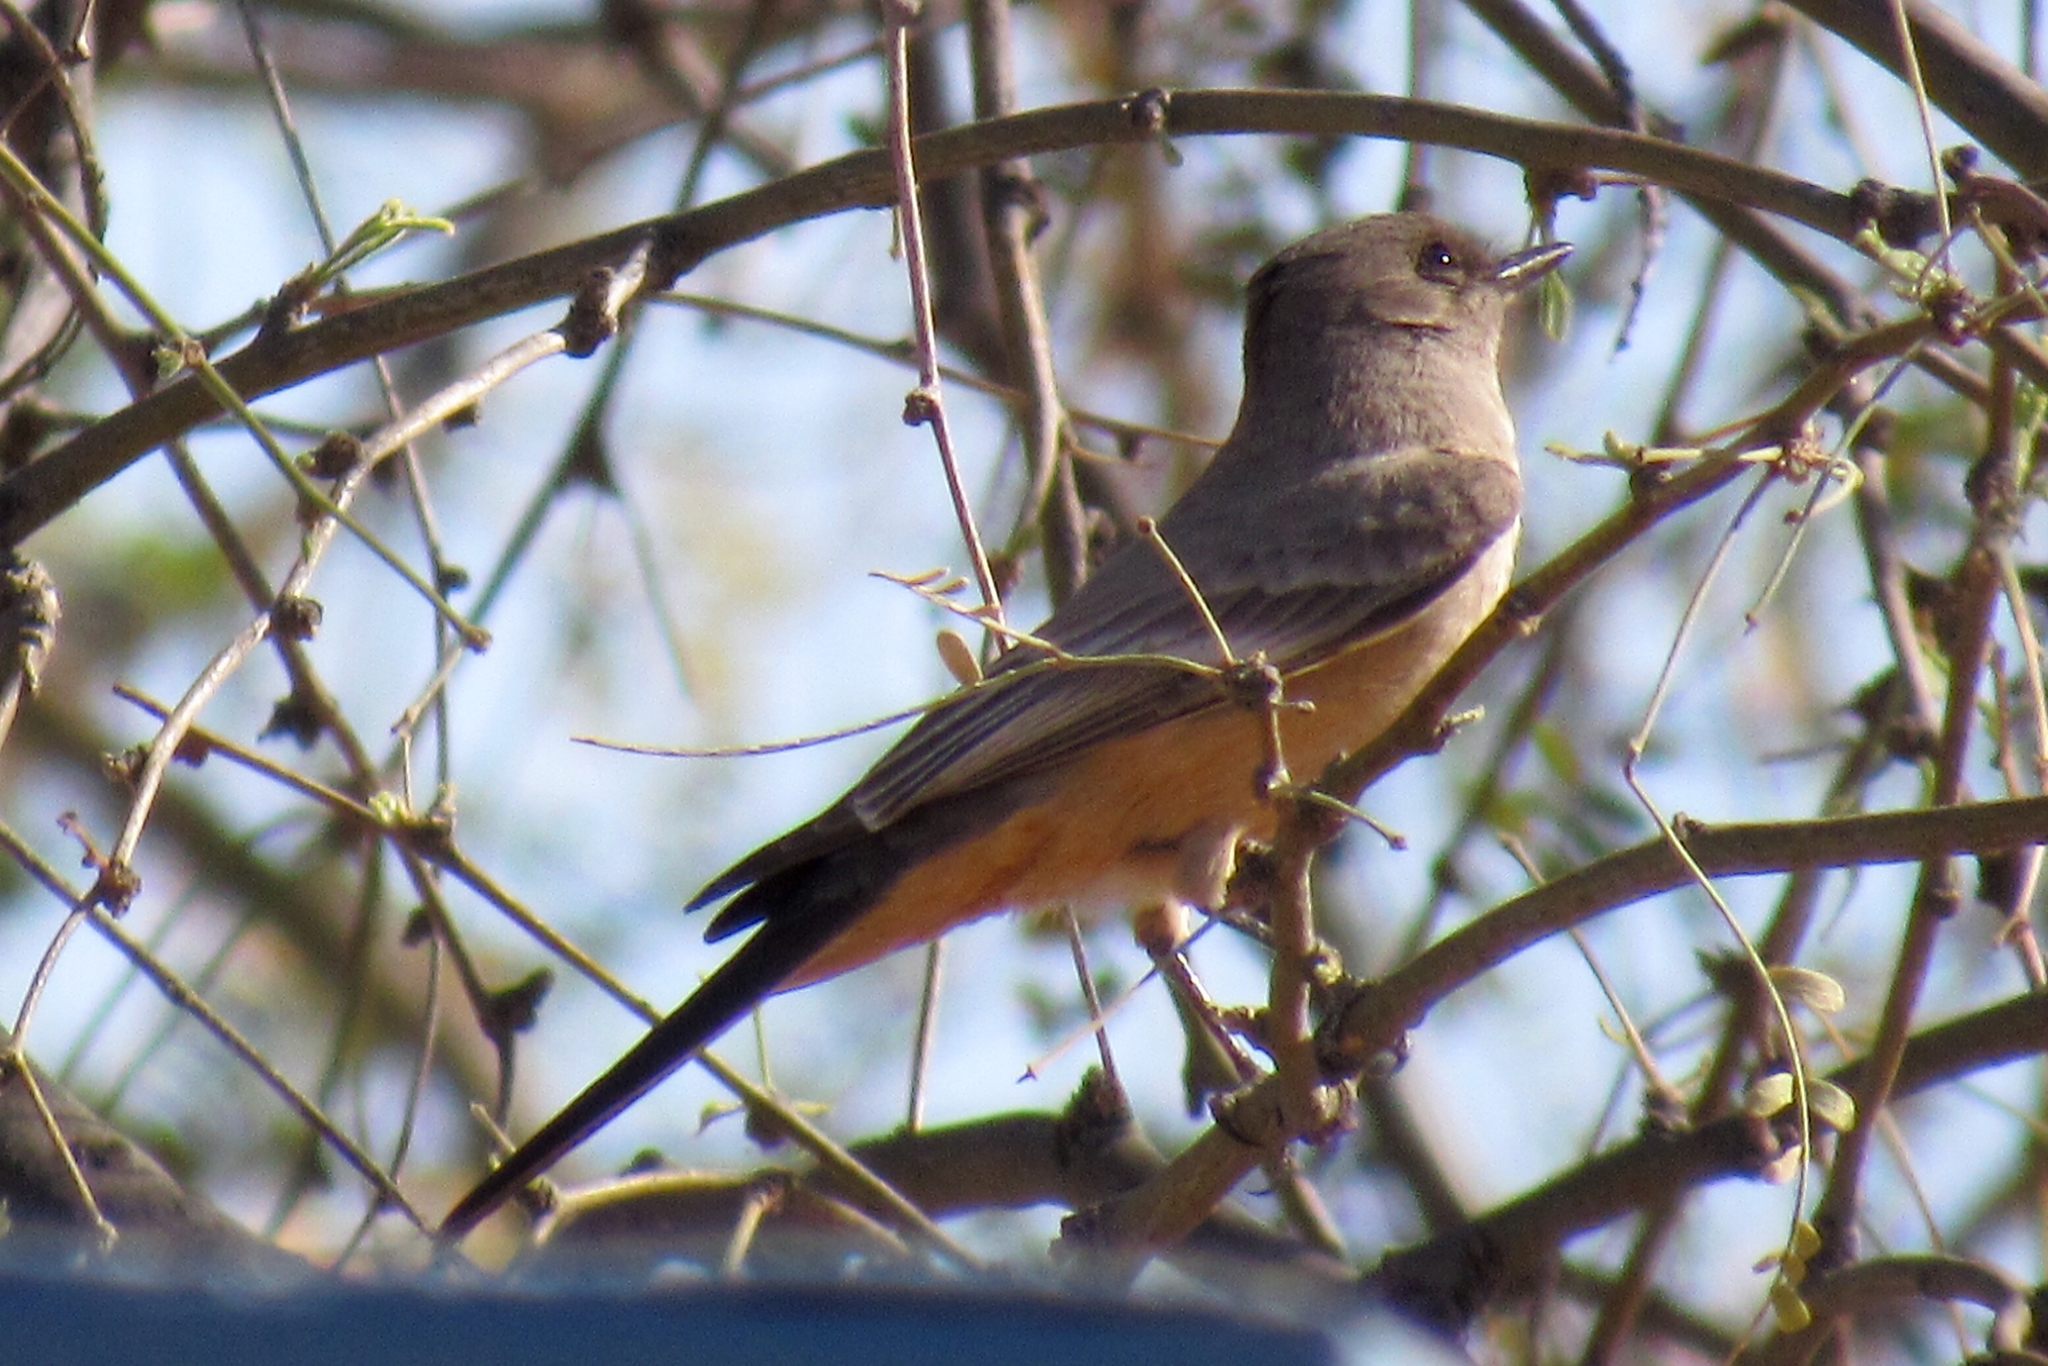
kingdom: Animalia
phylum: Chordata
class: Aves
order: Passeriformes
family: Tyrannidae
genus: Sayornis
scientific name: Sayornis saya
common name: Say's phoebe
